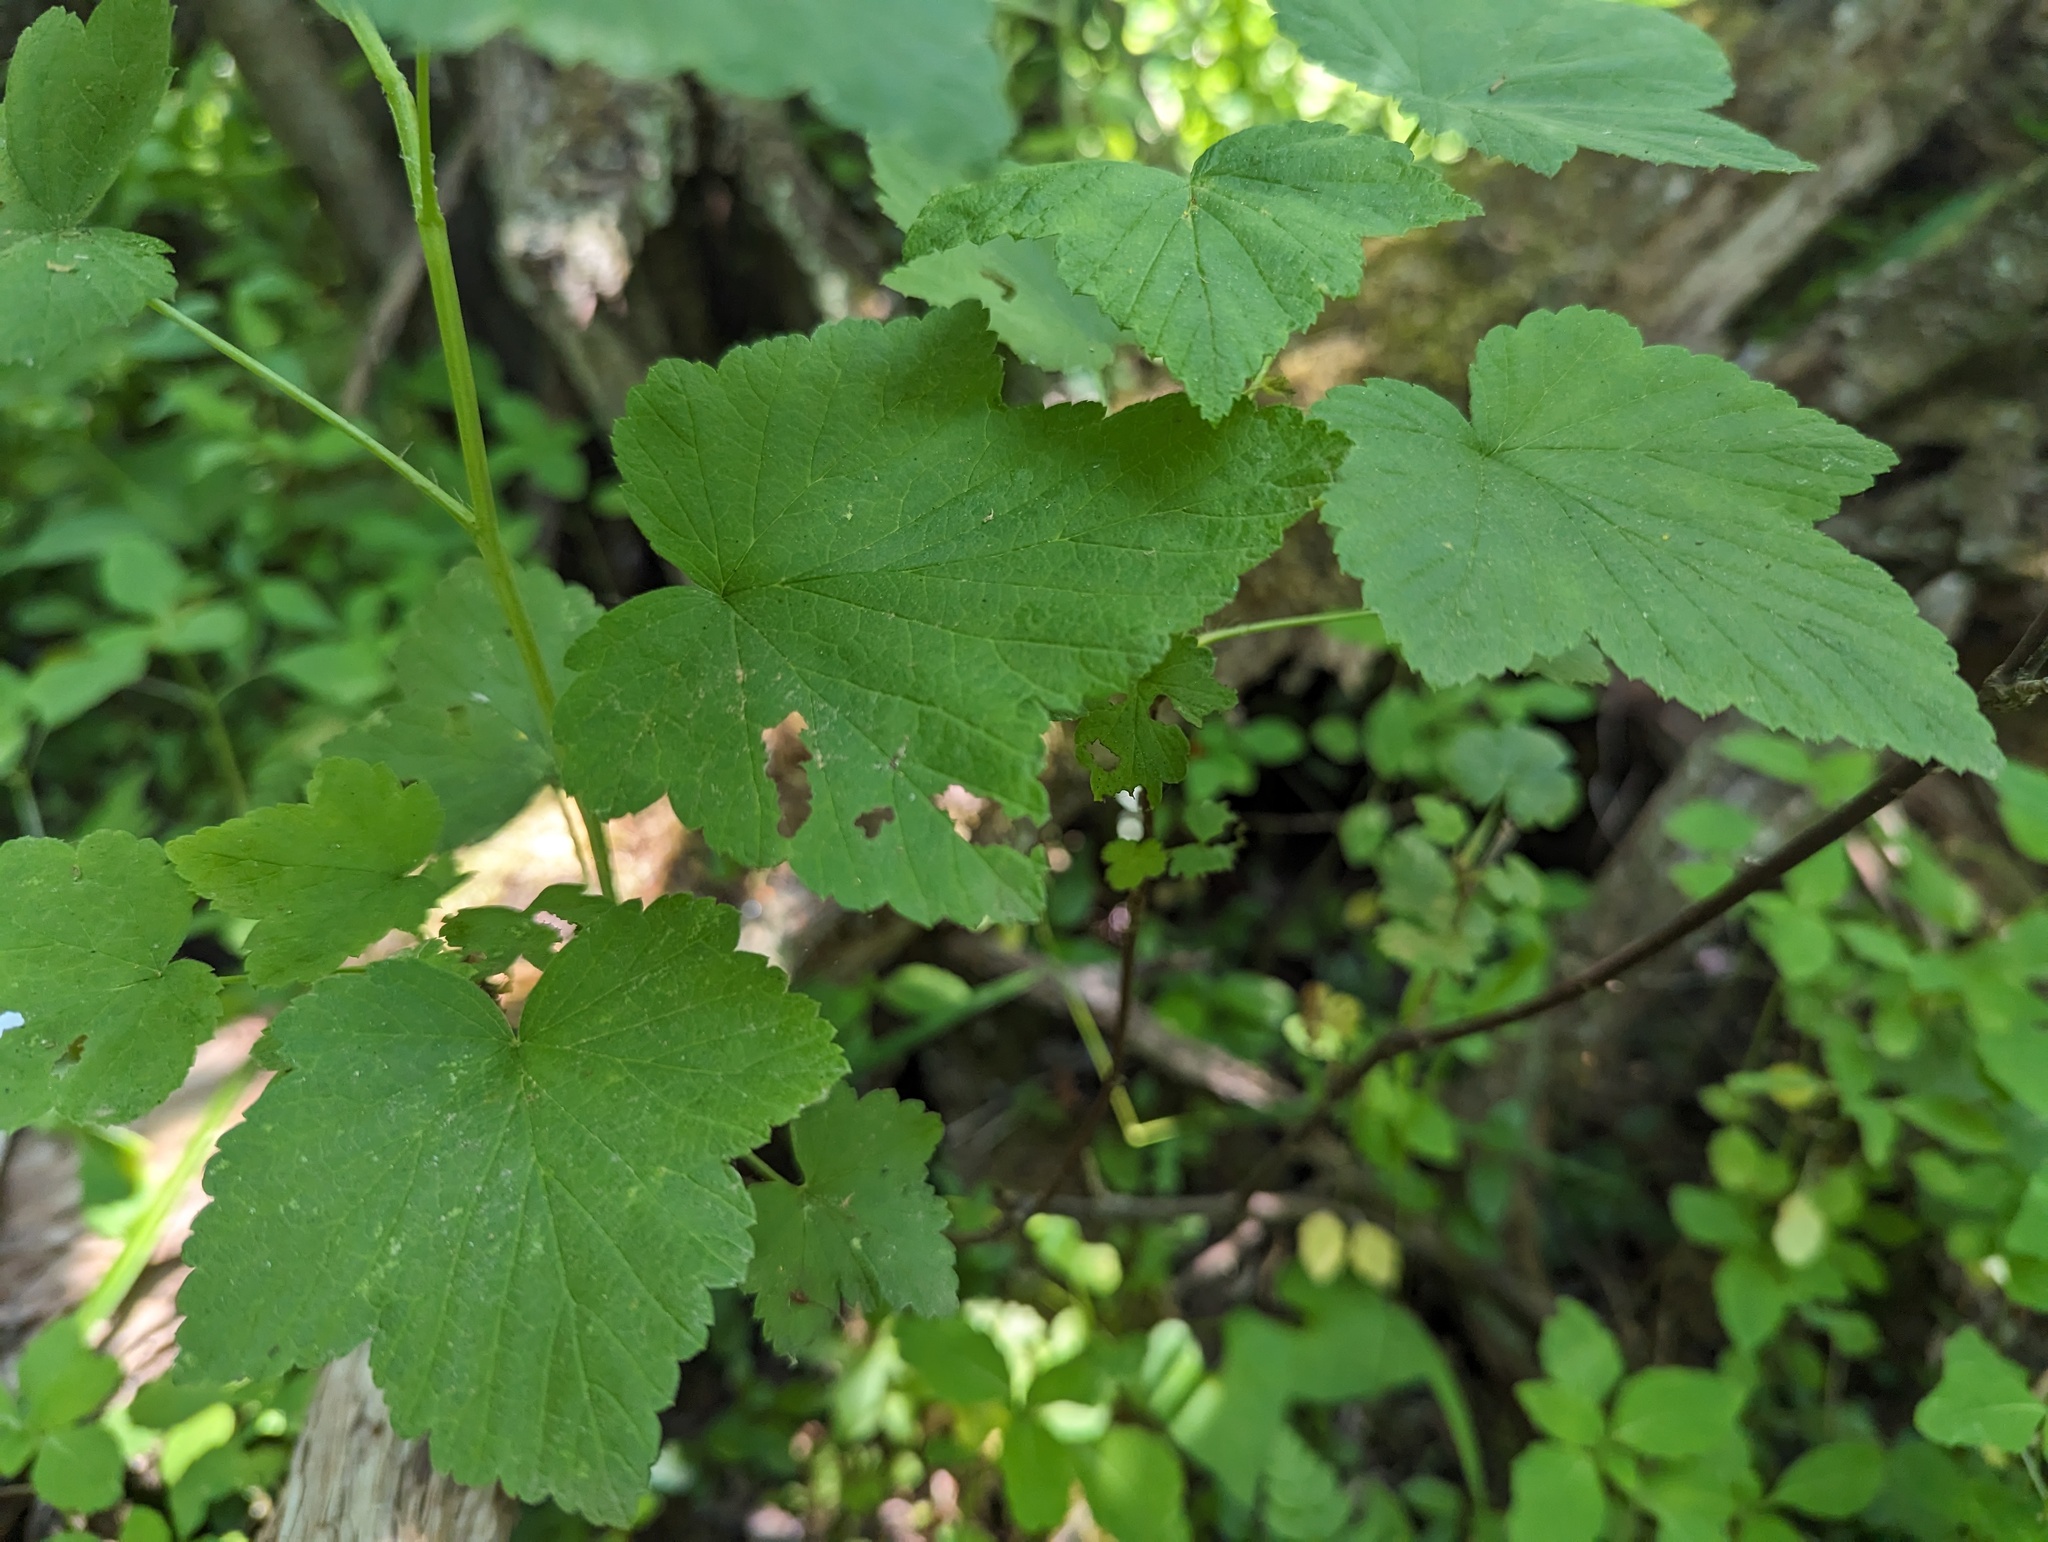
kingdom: Plantae
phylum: Tracheophyta
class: Magnoliopsida
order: Saxifragales
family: Grossulariaceae
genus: Ribes
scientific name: Ribes americanum
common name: American black currant
